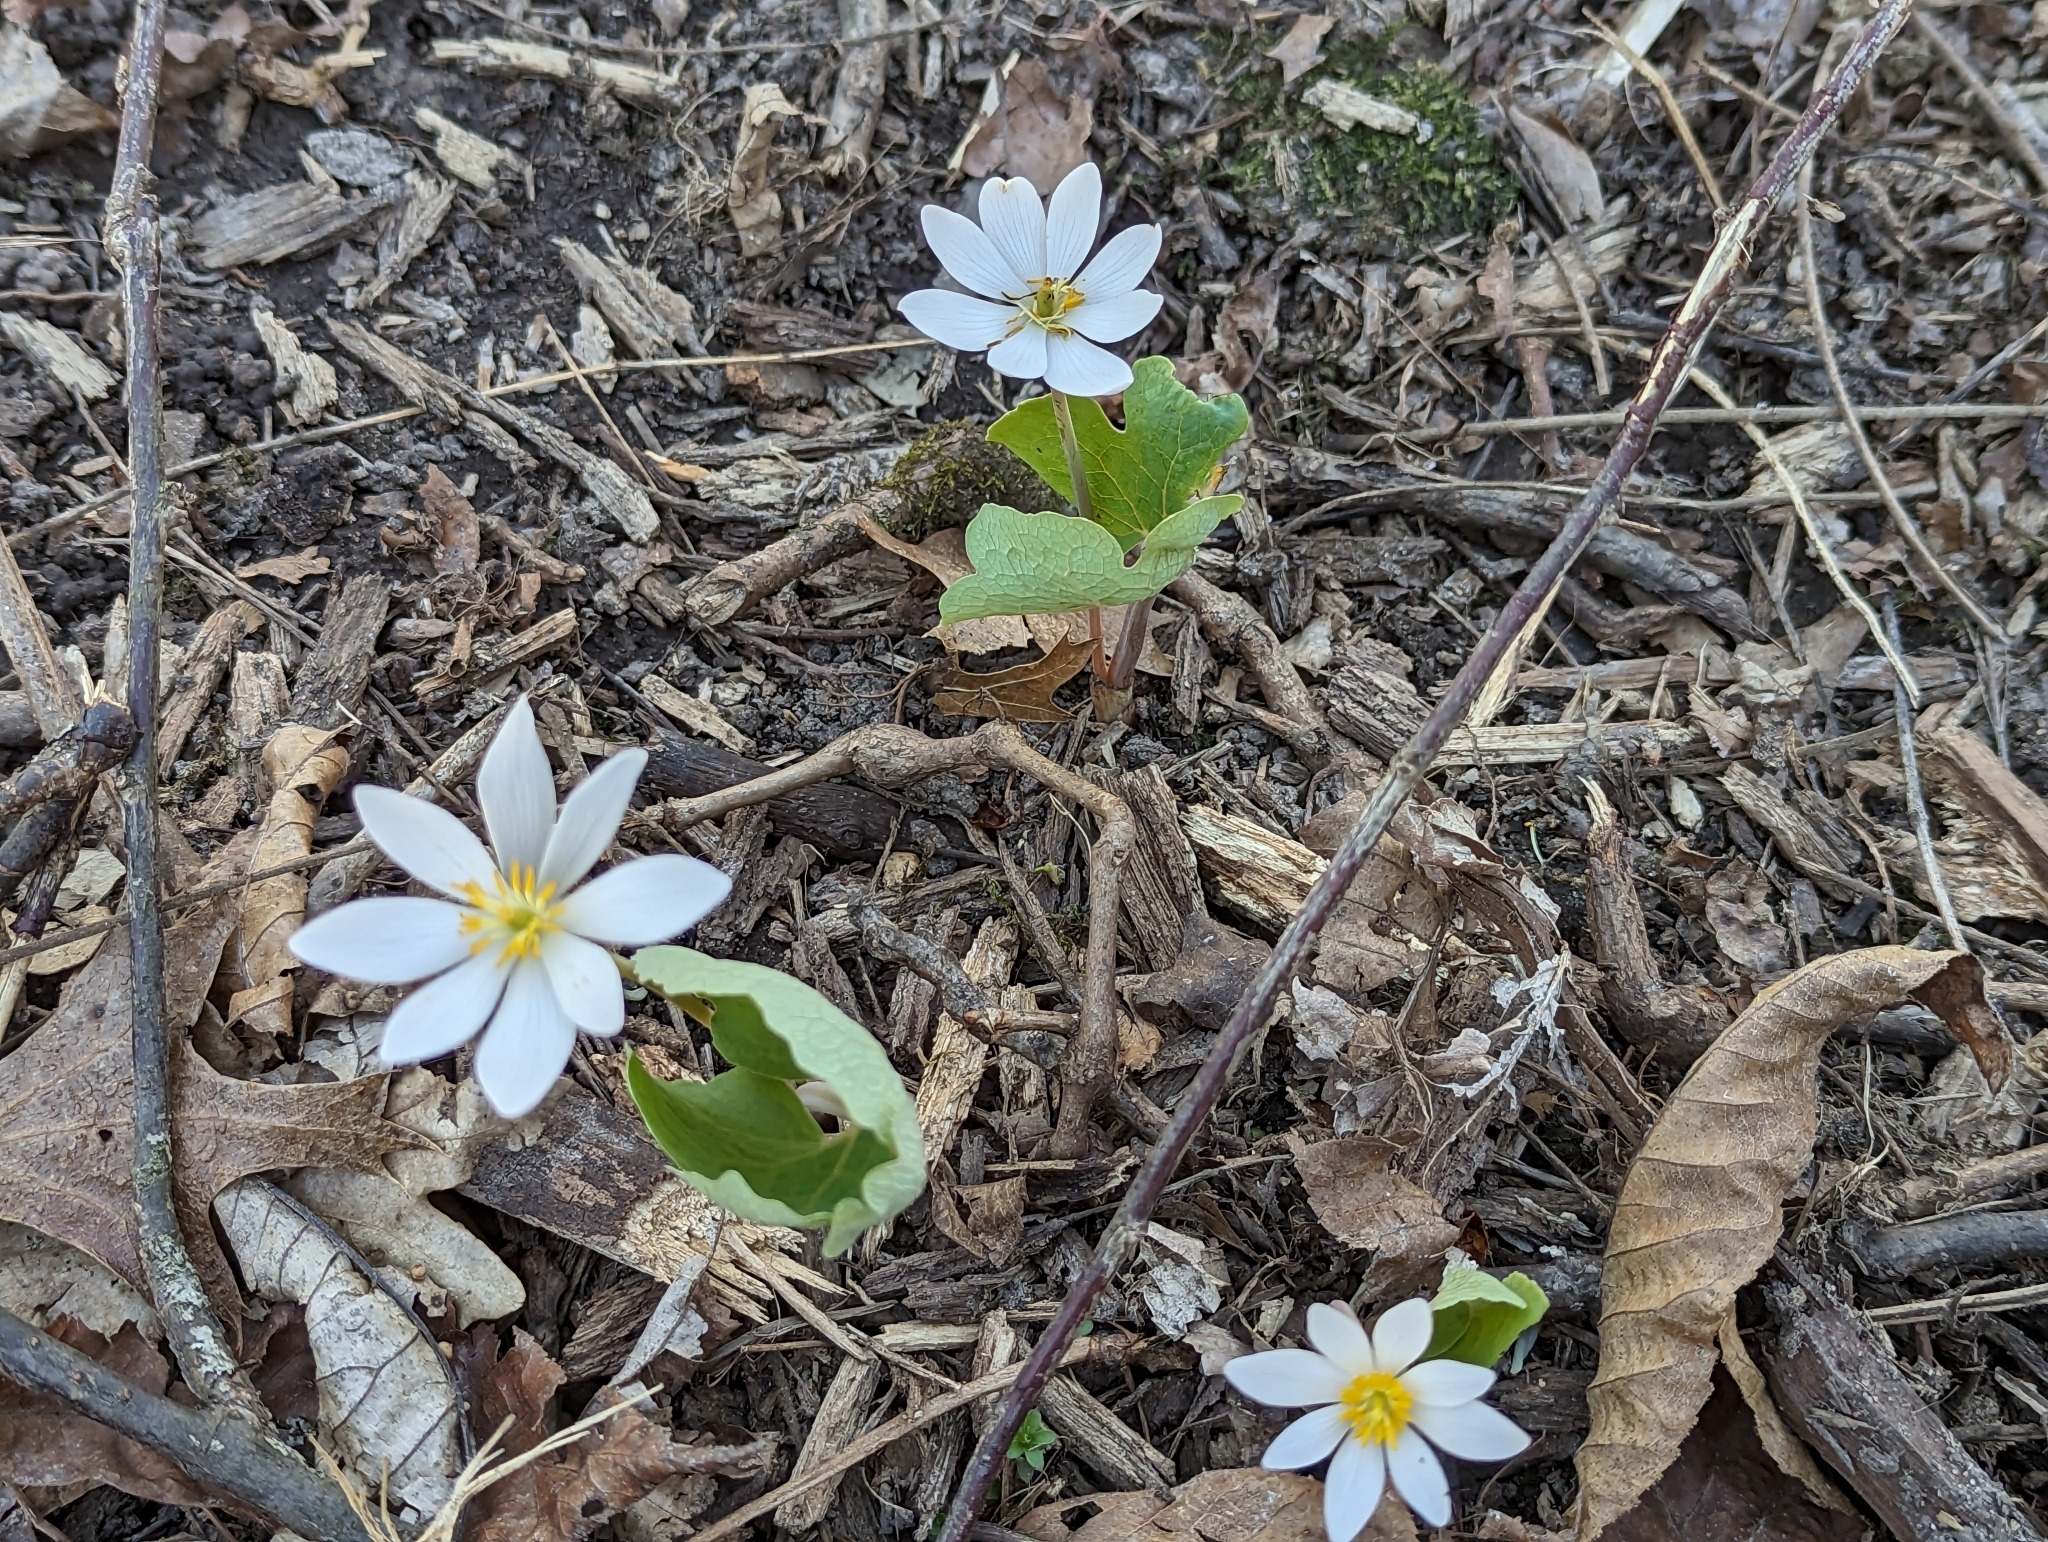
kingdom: Plantae
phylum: Tracheophyta
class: Magnoliopsida
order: Ranunculales
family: Papaveraceae
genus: Sanguinaria
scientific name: Sanguinaria canadensis
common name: Bloodroot
